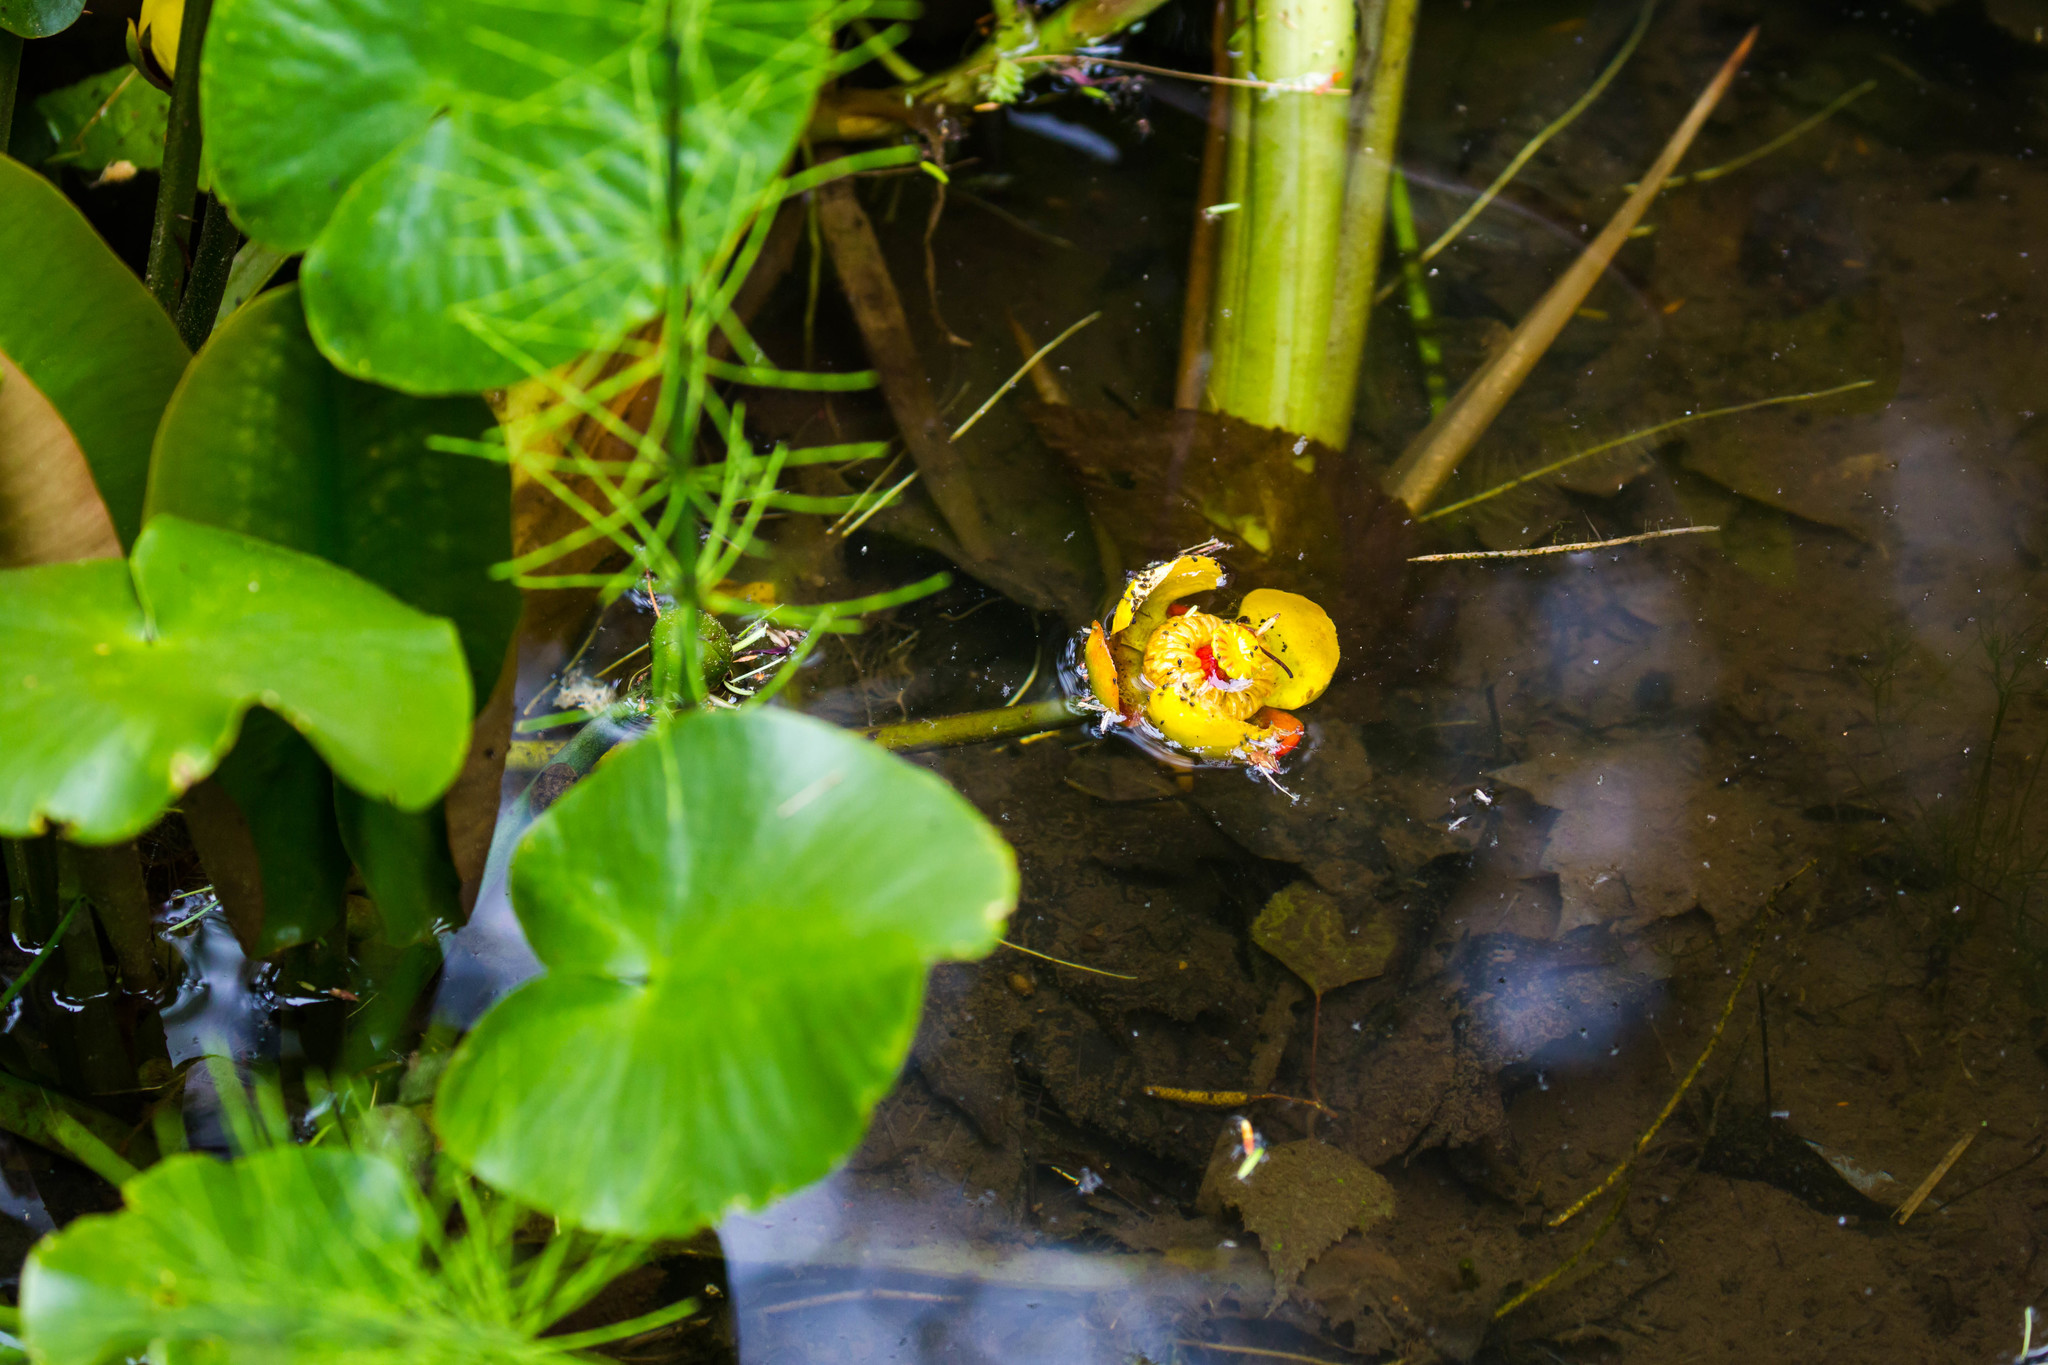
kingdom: Plantae
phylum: Tracheophyta
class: Magnoliopsida
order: Nymphaeales
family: Nymphaeaceae
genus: Nuphar
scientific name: Nuphar variegata
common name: Beaver-root
